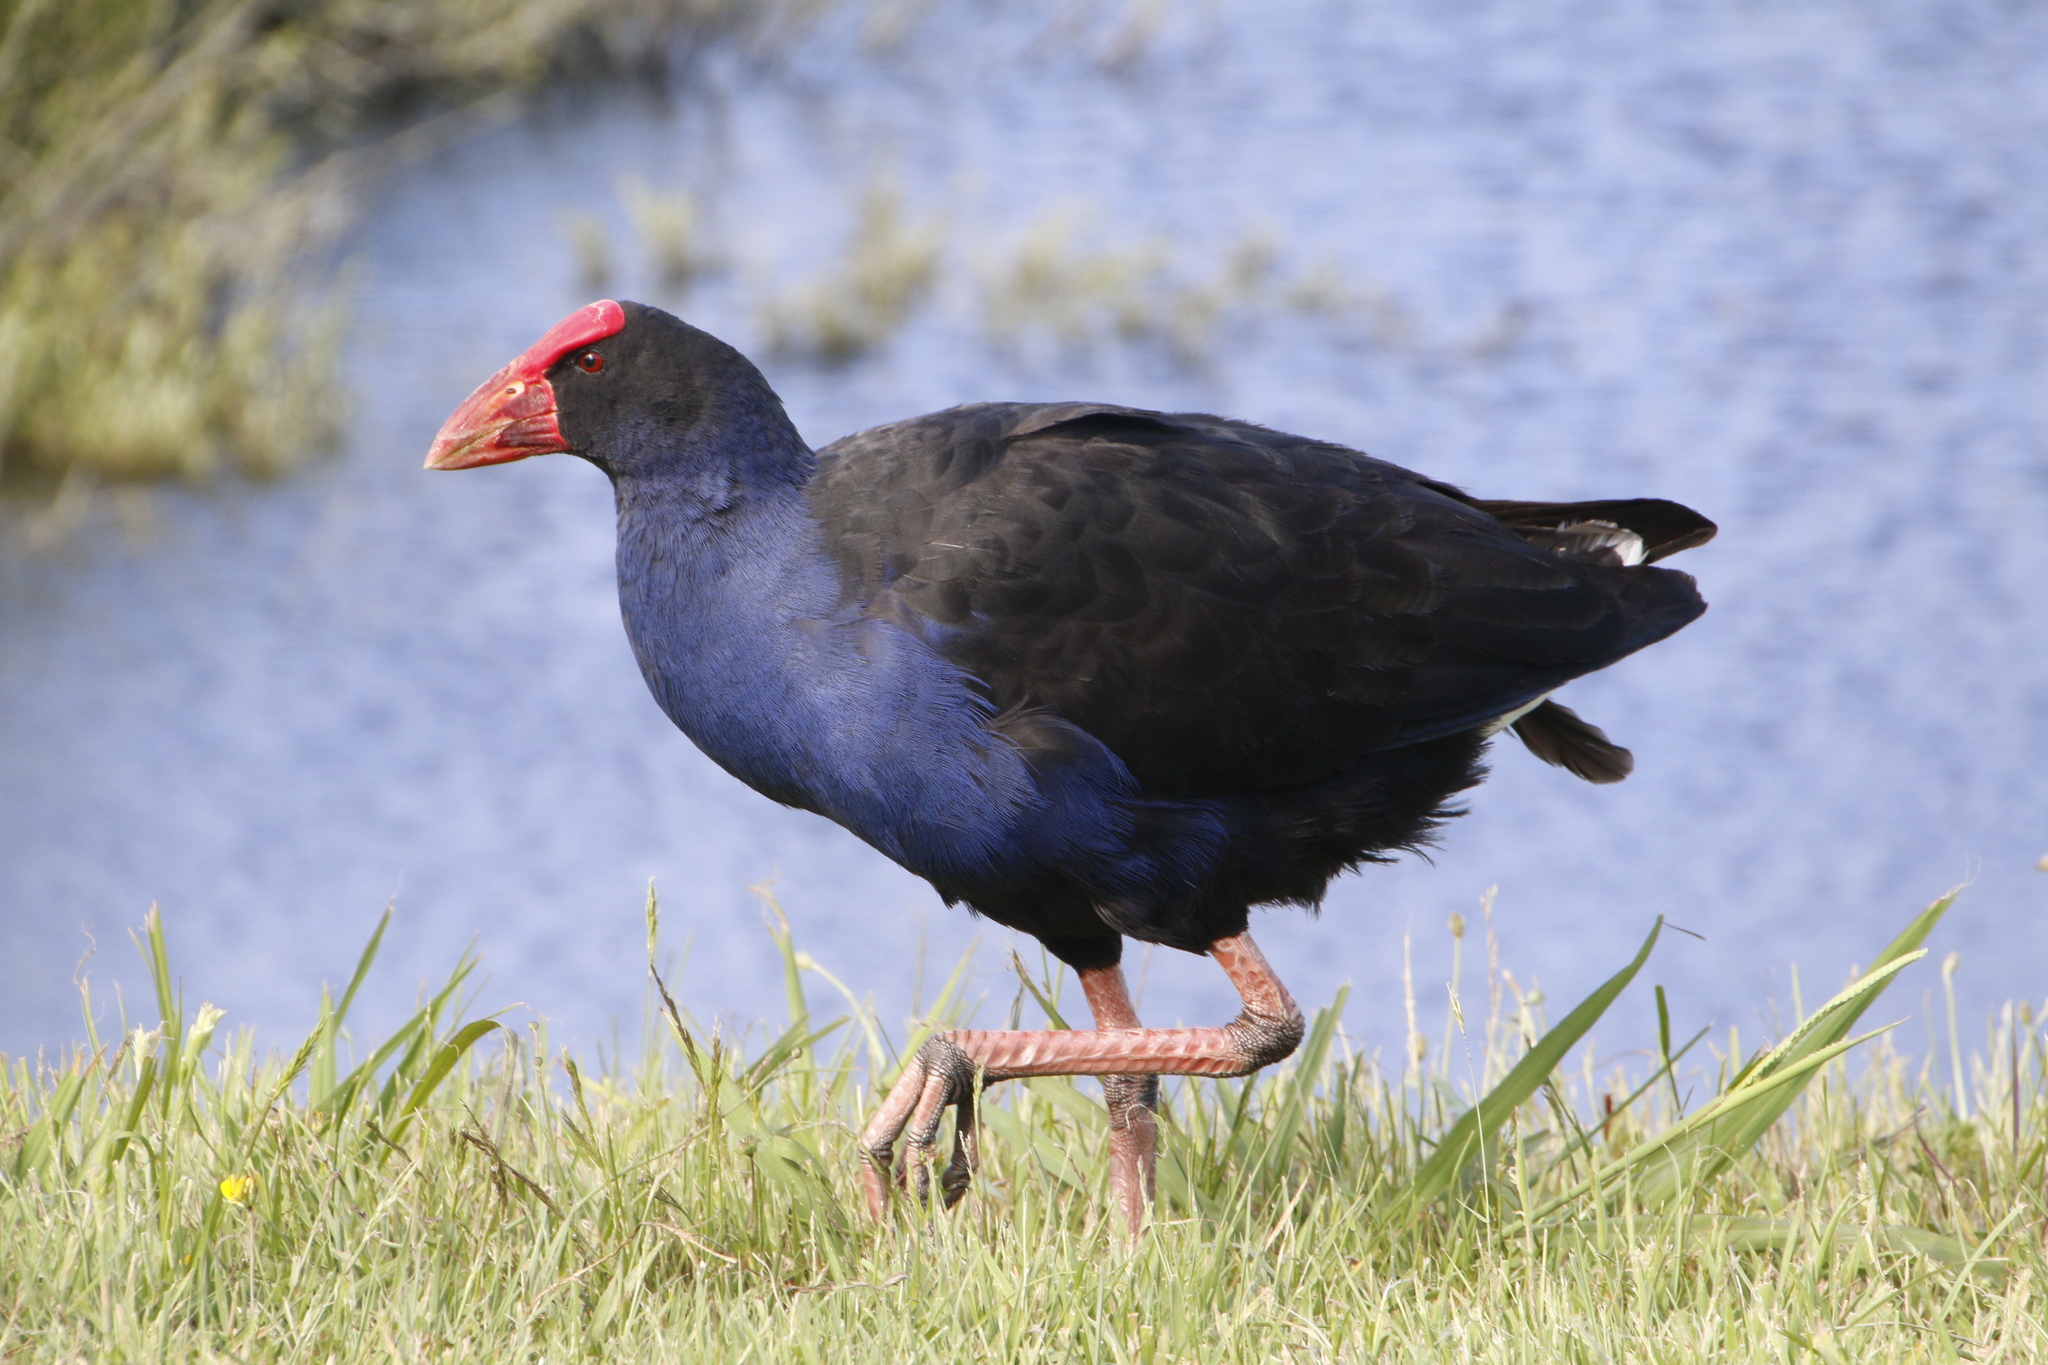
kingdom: Animalia
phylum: Chordata
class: Aves
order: Gruiformes
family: Rallidae
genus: Porphyrio
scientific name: Porphyrio melanotus
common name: Australasian swamphen
